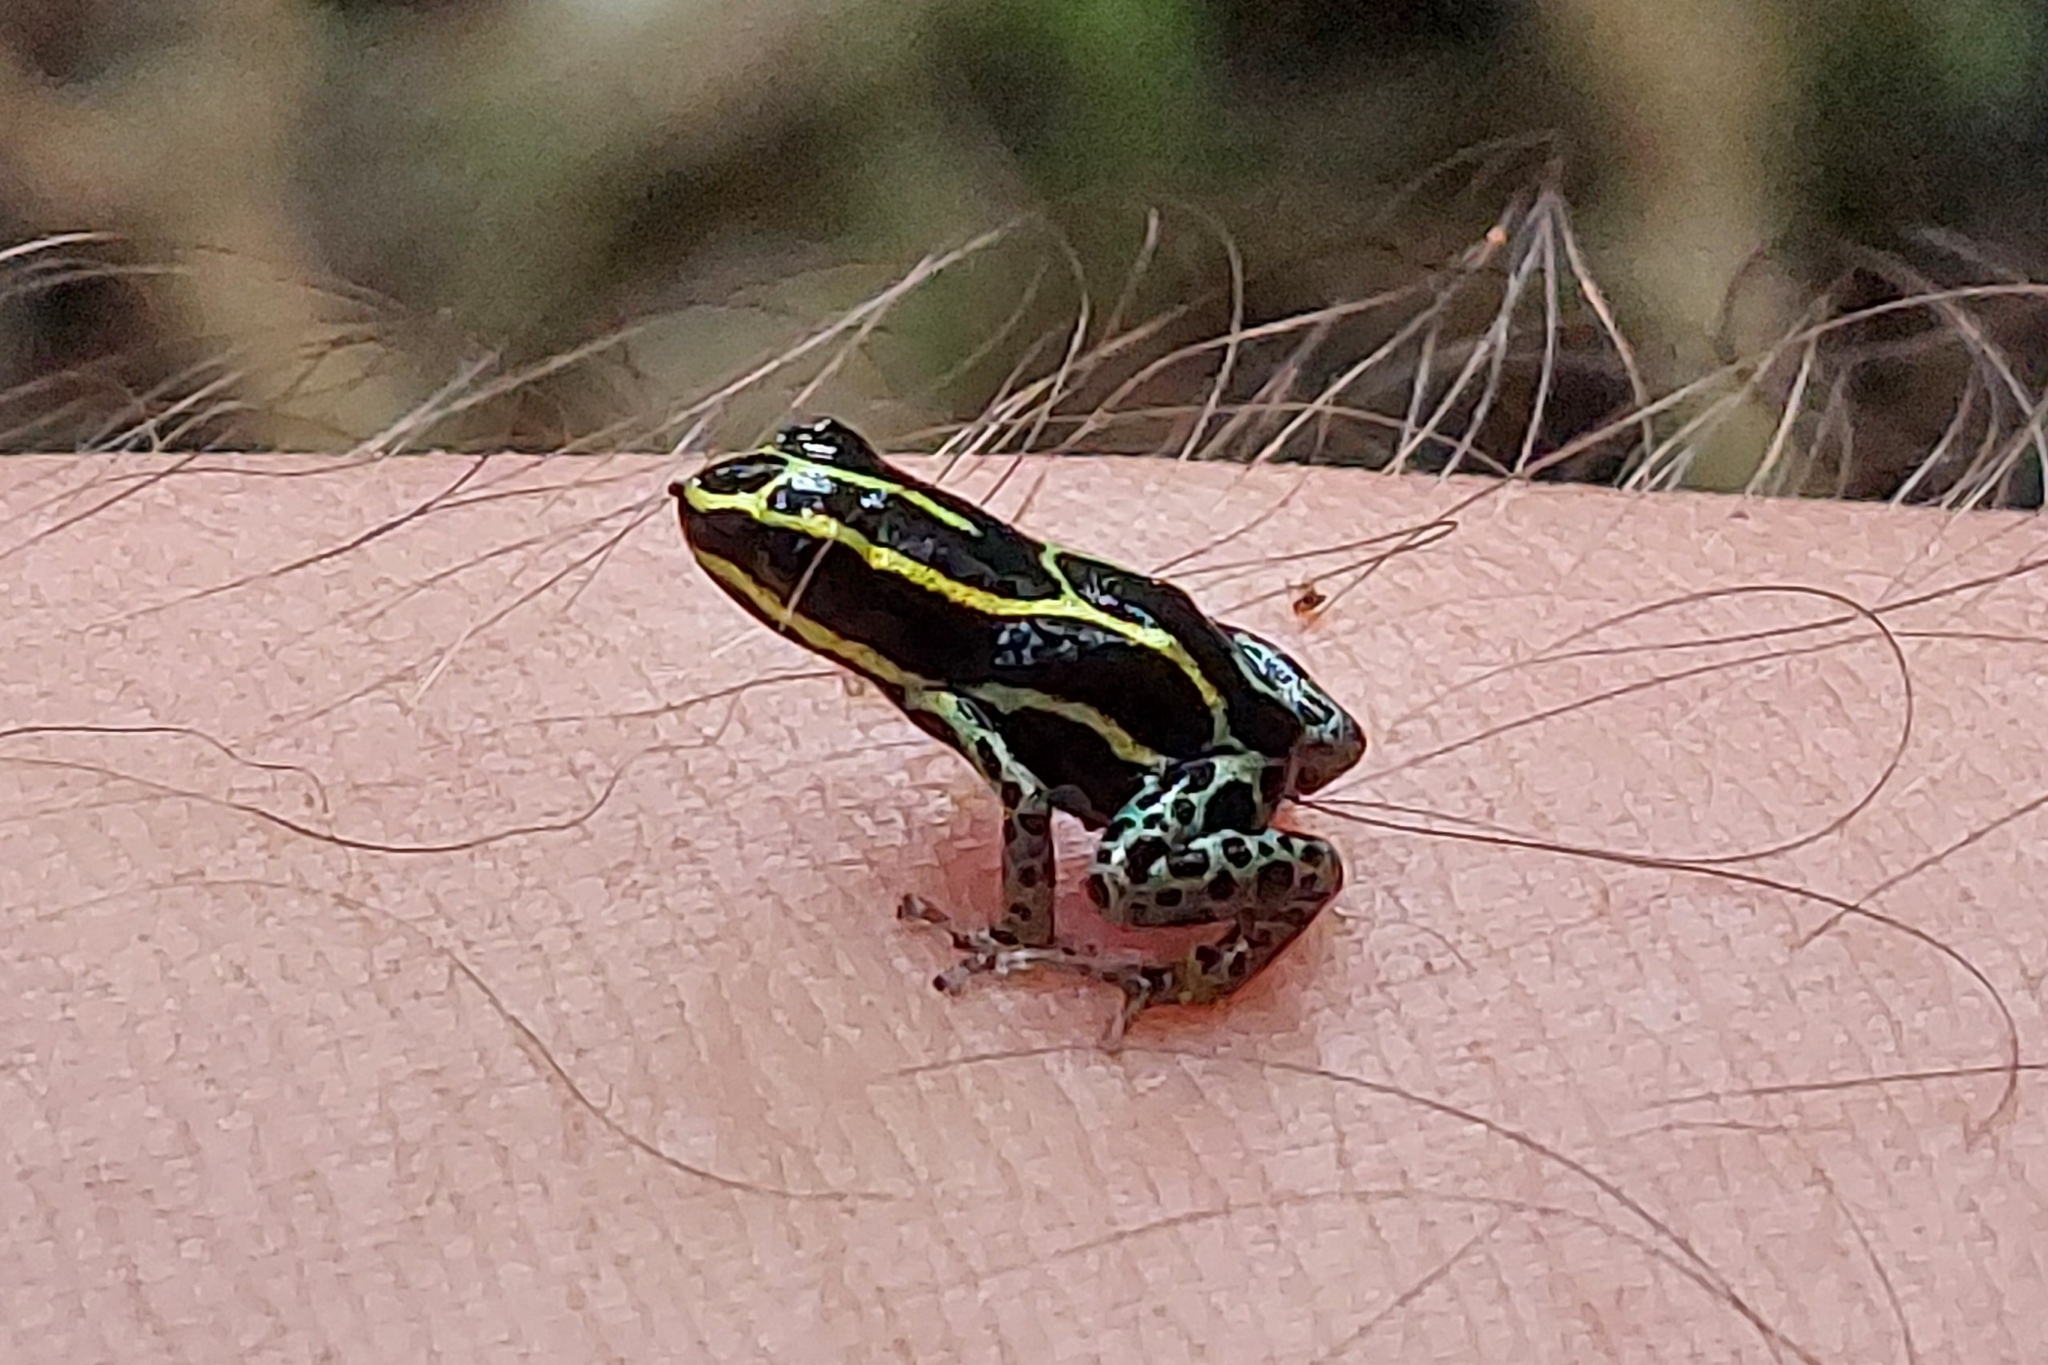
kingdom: Animalia
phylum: Chordata
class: Amphibia
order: Anura
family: Dendrobatidae
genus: Ranitomeya
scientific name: Ranitomeya variabilis
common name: Variable poison frog
